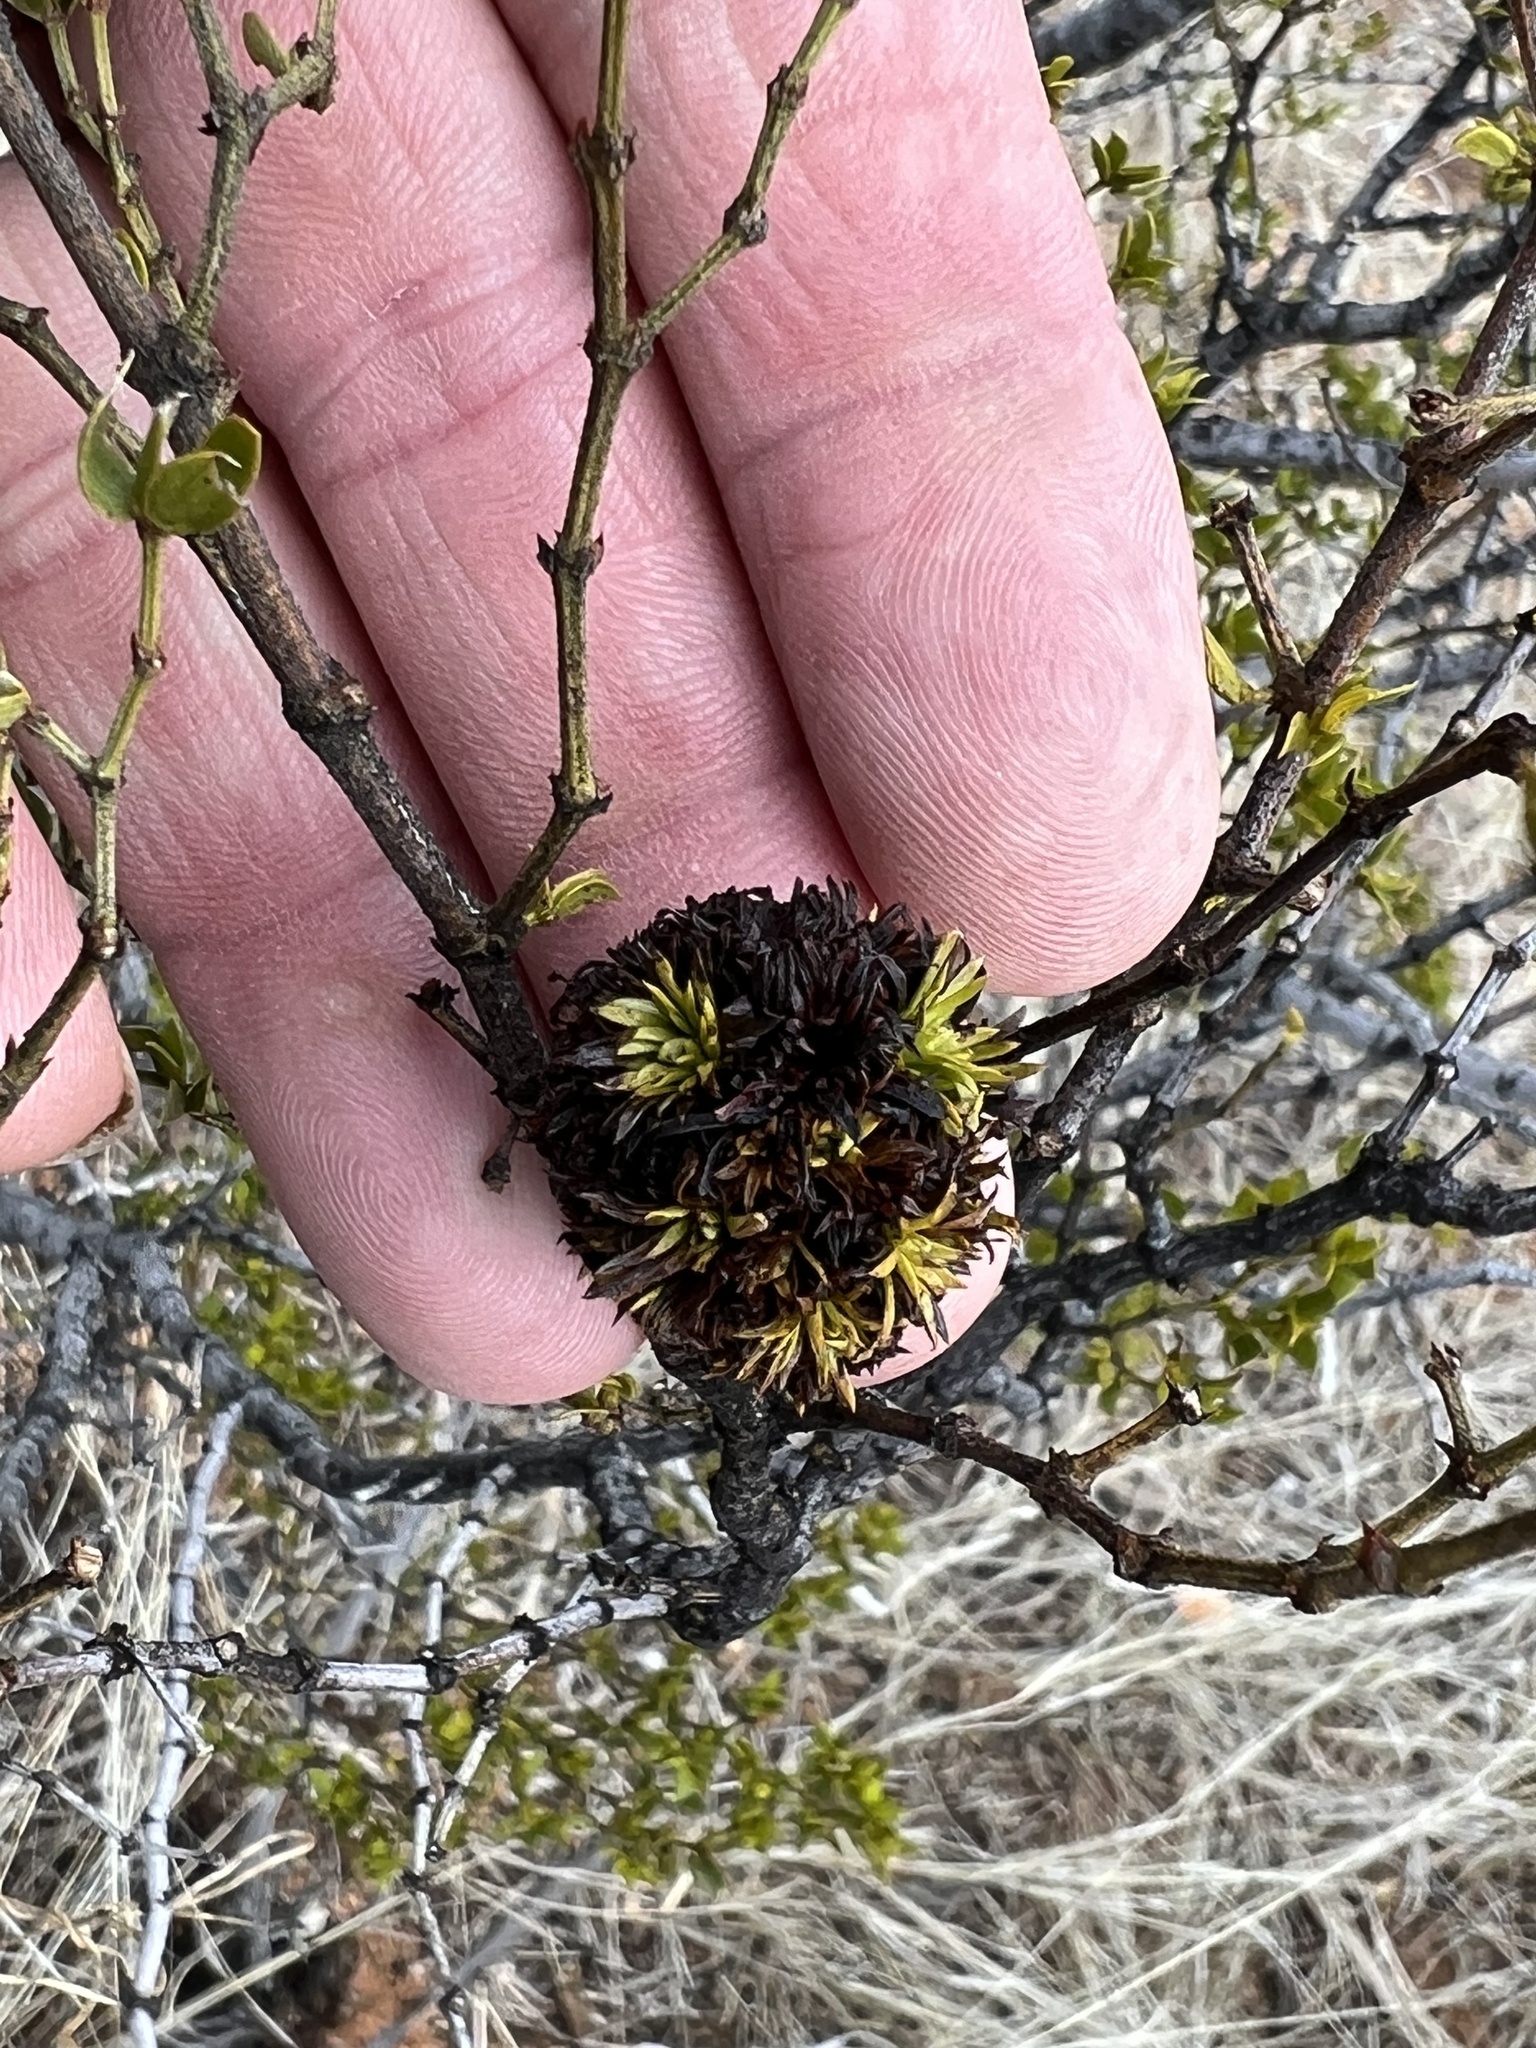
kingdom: Animalia
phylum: Arthropoda
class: Insecta
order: Diptera
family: Cecidomyiidae
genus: Asphondylia
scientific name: Asphondylia auripila
